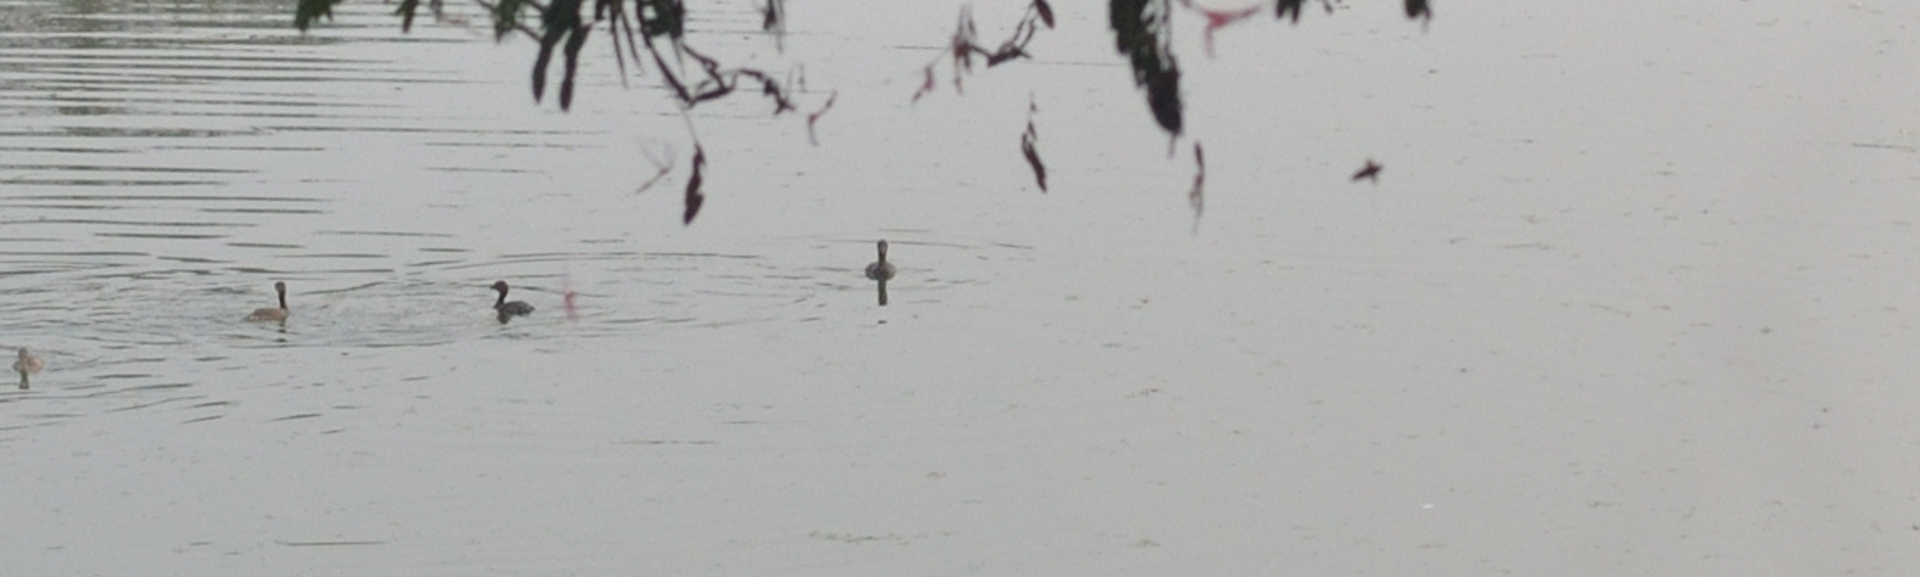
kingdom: Animalia
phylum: Chordata
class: Aves
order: Podicipediformes
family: Podicipedidae
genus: Tachybaptus
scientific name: Tachybaptus ruficollis
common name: Little grebe
